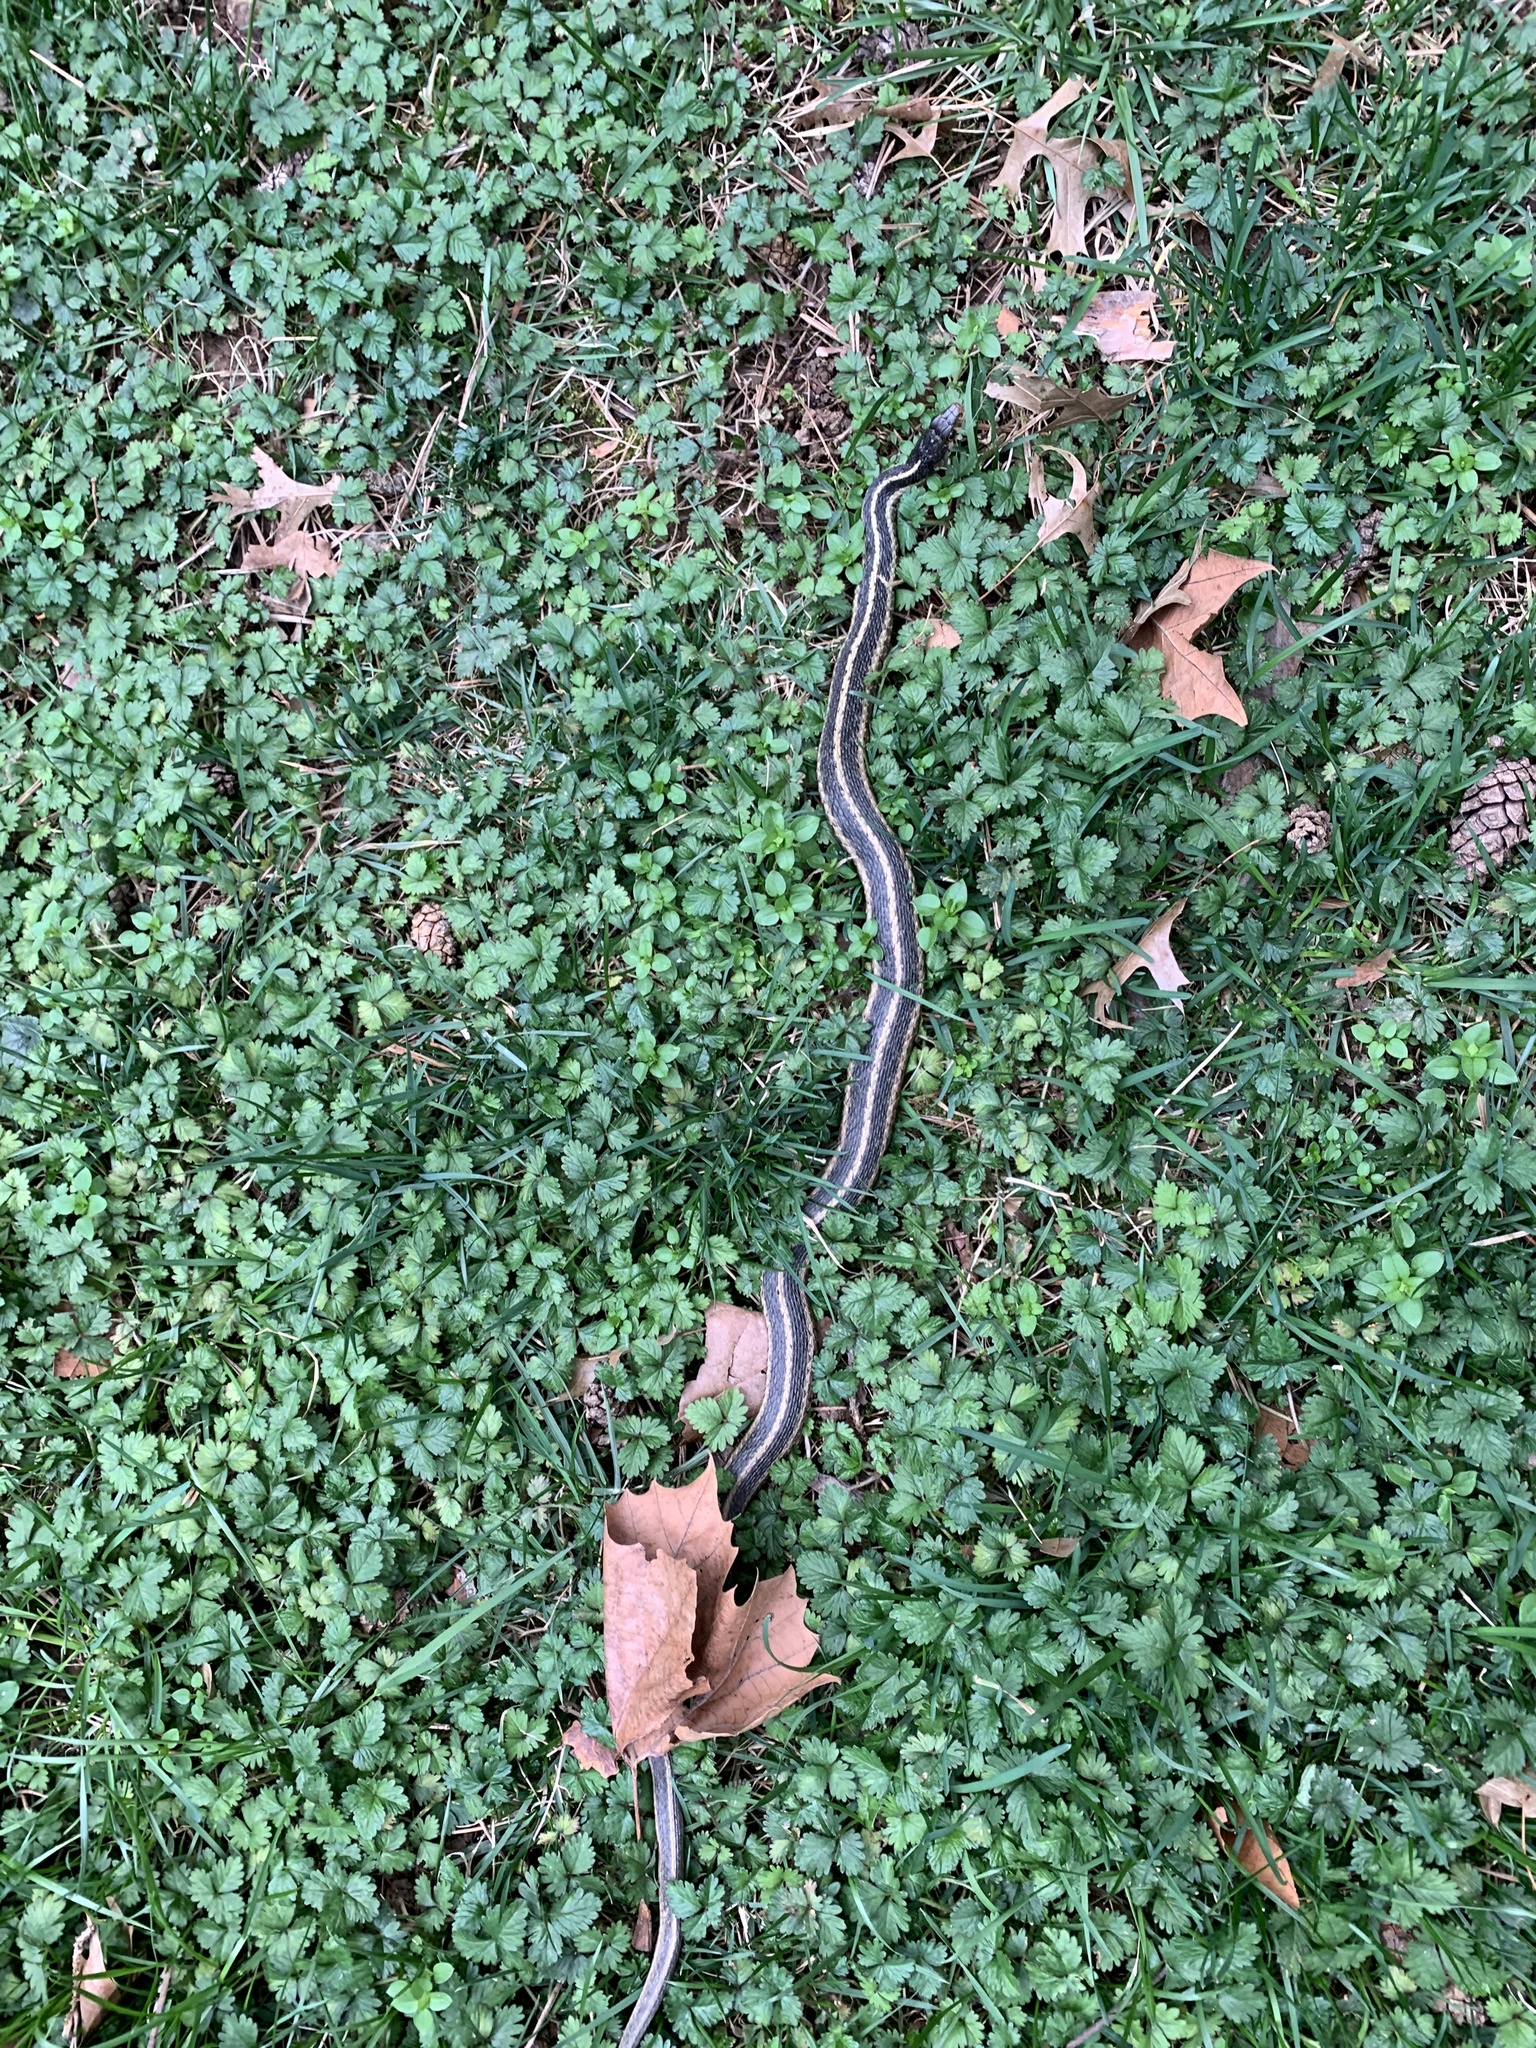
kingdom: Animalia
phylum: Chordata
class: Squamata
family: Colubridae
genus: Thamnophis
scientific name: Thamnophis sirtalis
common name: Common garter snake
